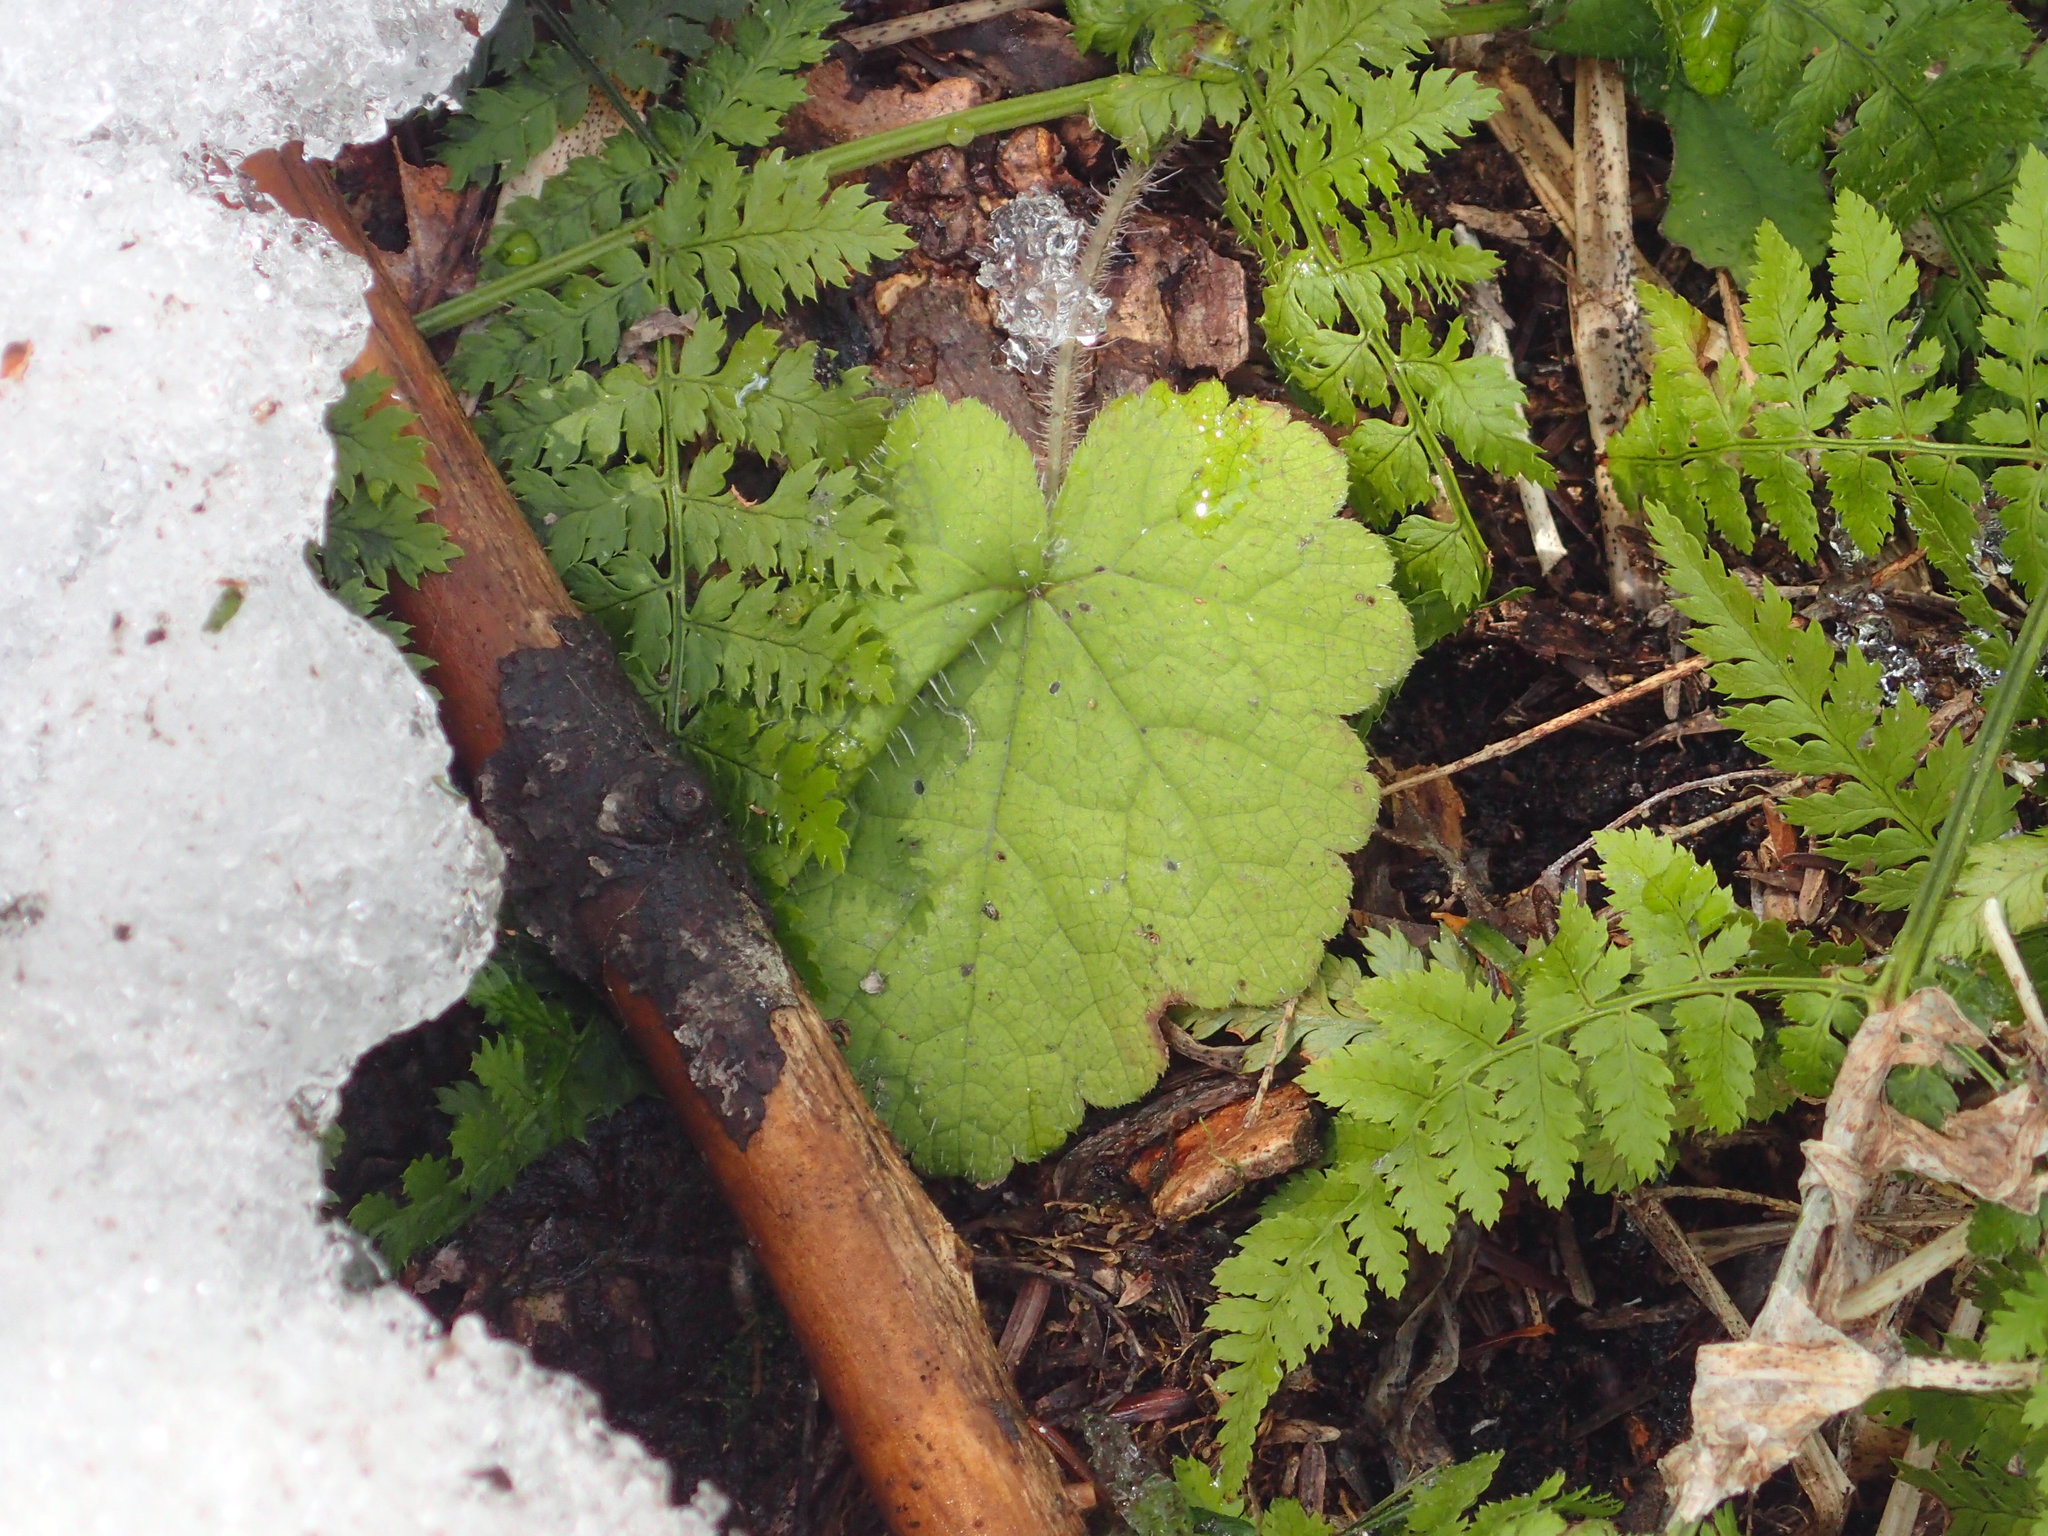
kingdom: Plantae
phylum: Tracheophyta
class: Magnoliopsida
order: Saxifragales
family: Saxifragaceae
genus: Tiarella
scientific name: Tiarella stolonifera
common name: Stoloniferous foamflower
